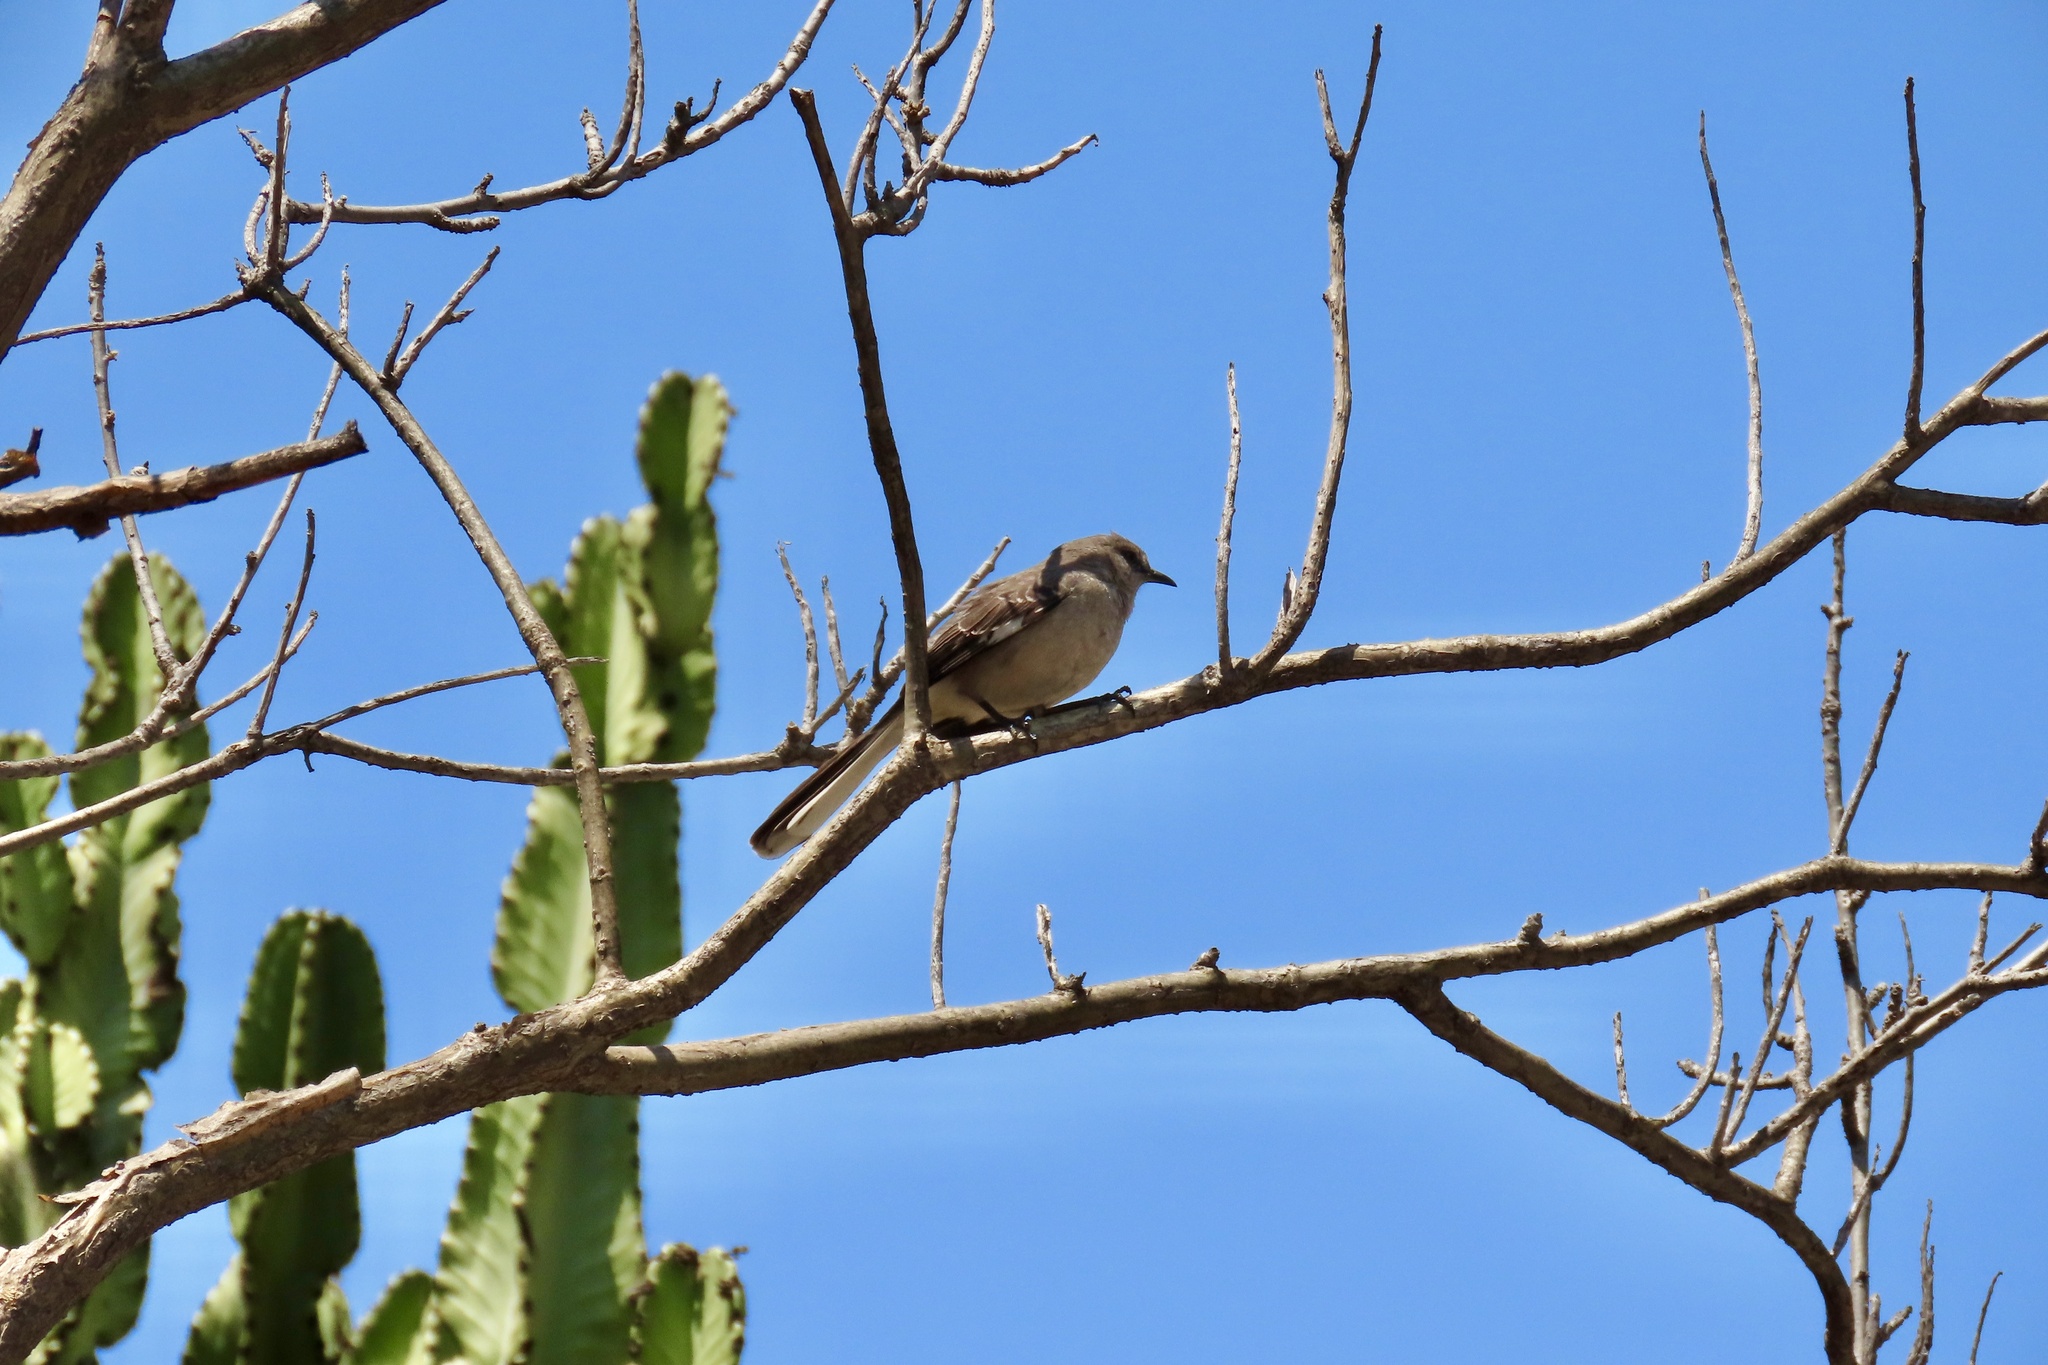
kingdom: Animalia
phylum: Chordata
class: Aves
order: Passeriformes
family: Mimidae
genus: Mimus
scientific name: Mimus polyglottos
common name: Northern mockingbird
